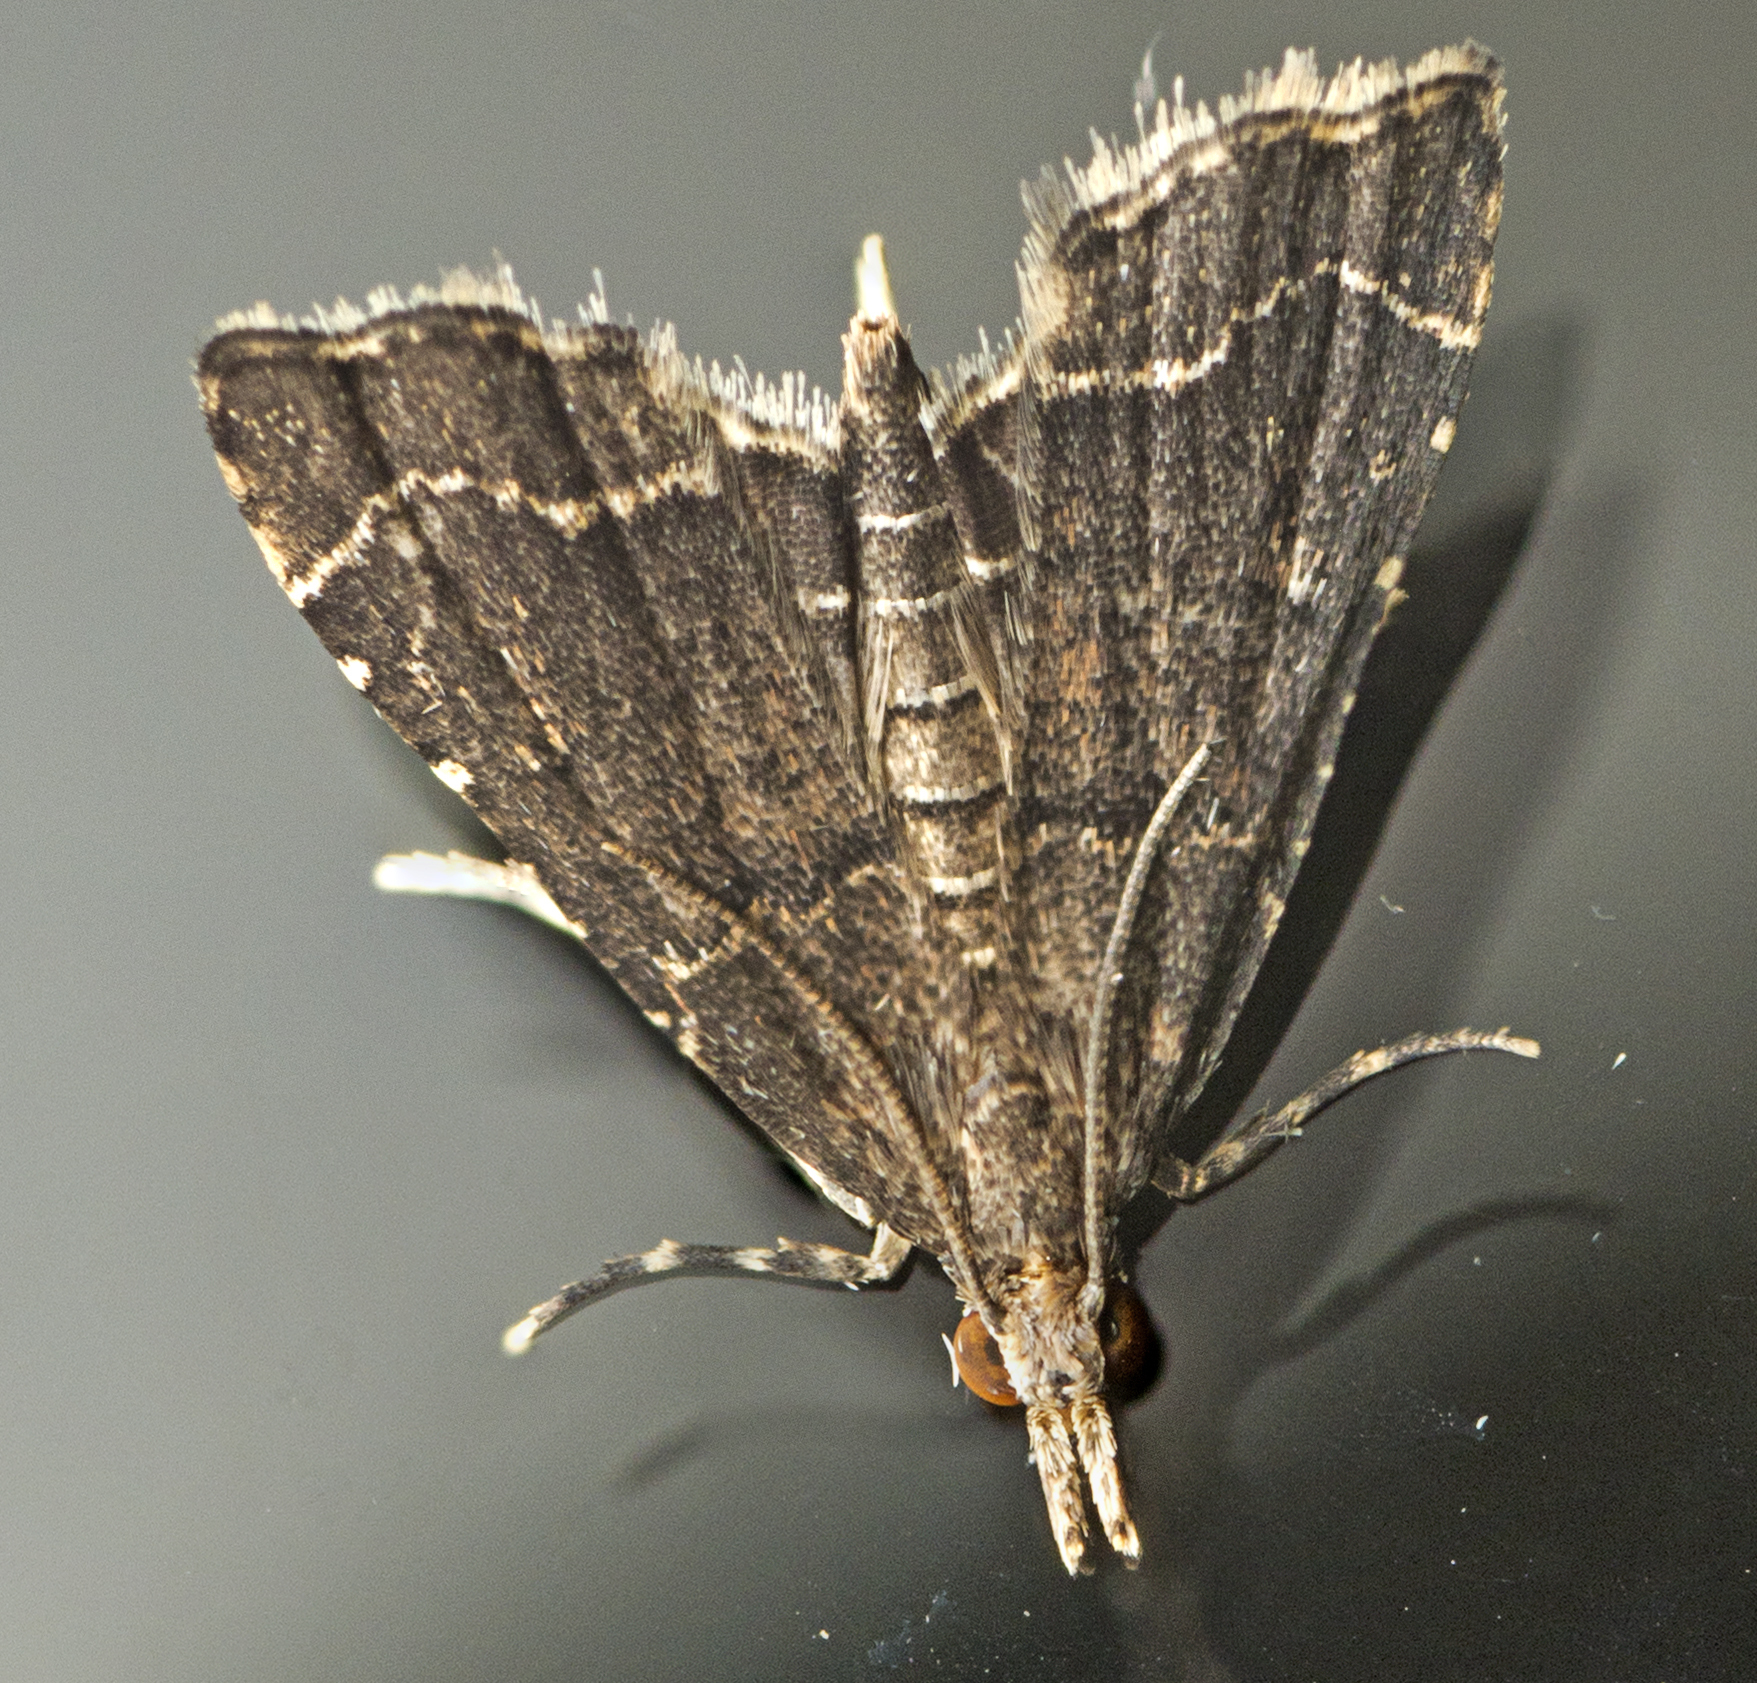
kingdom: Animalia
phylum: Arthropoda
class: Insecta
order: Lepidoptera
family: Crambidae
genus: Diplopseustis
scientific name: Diplopseustis perieresalis
